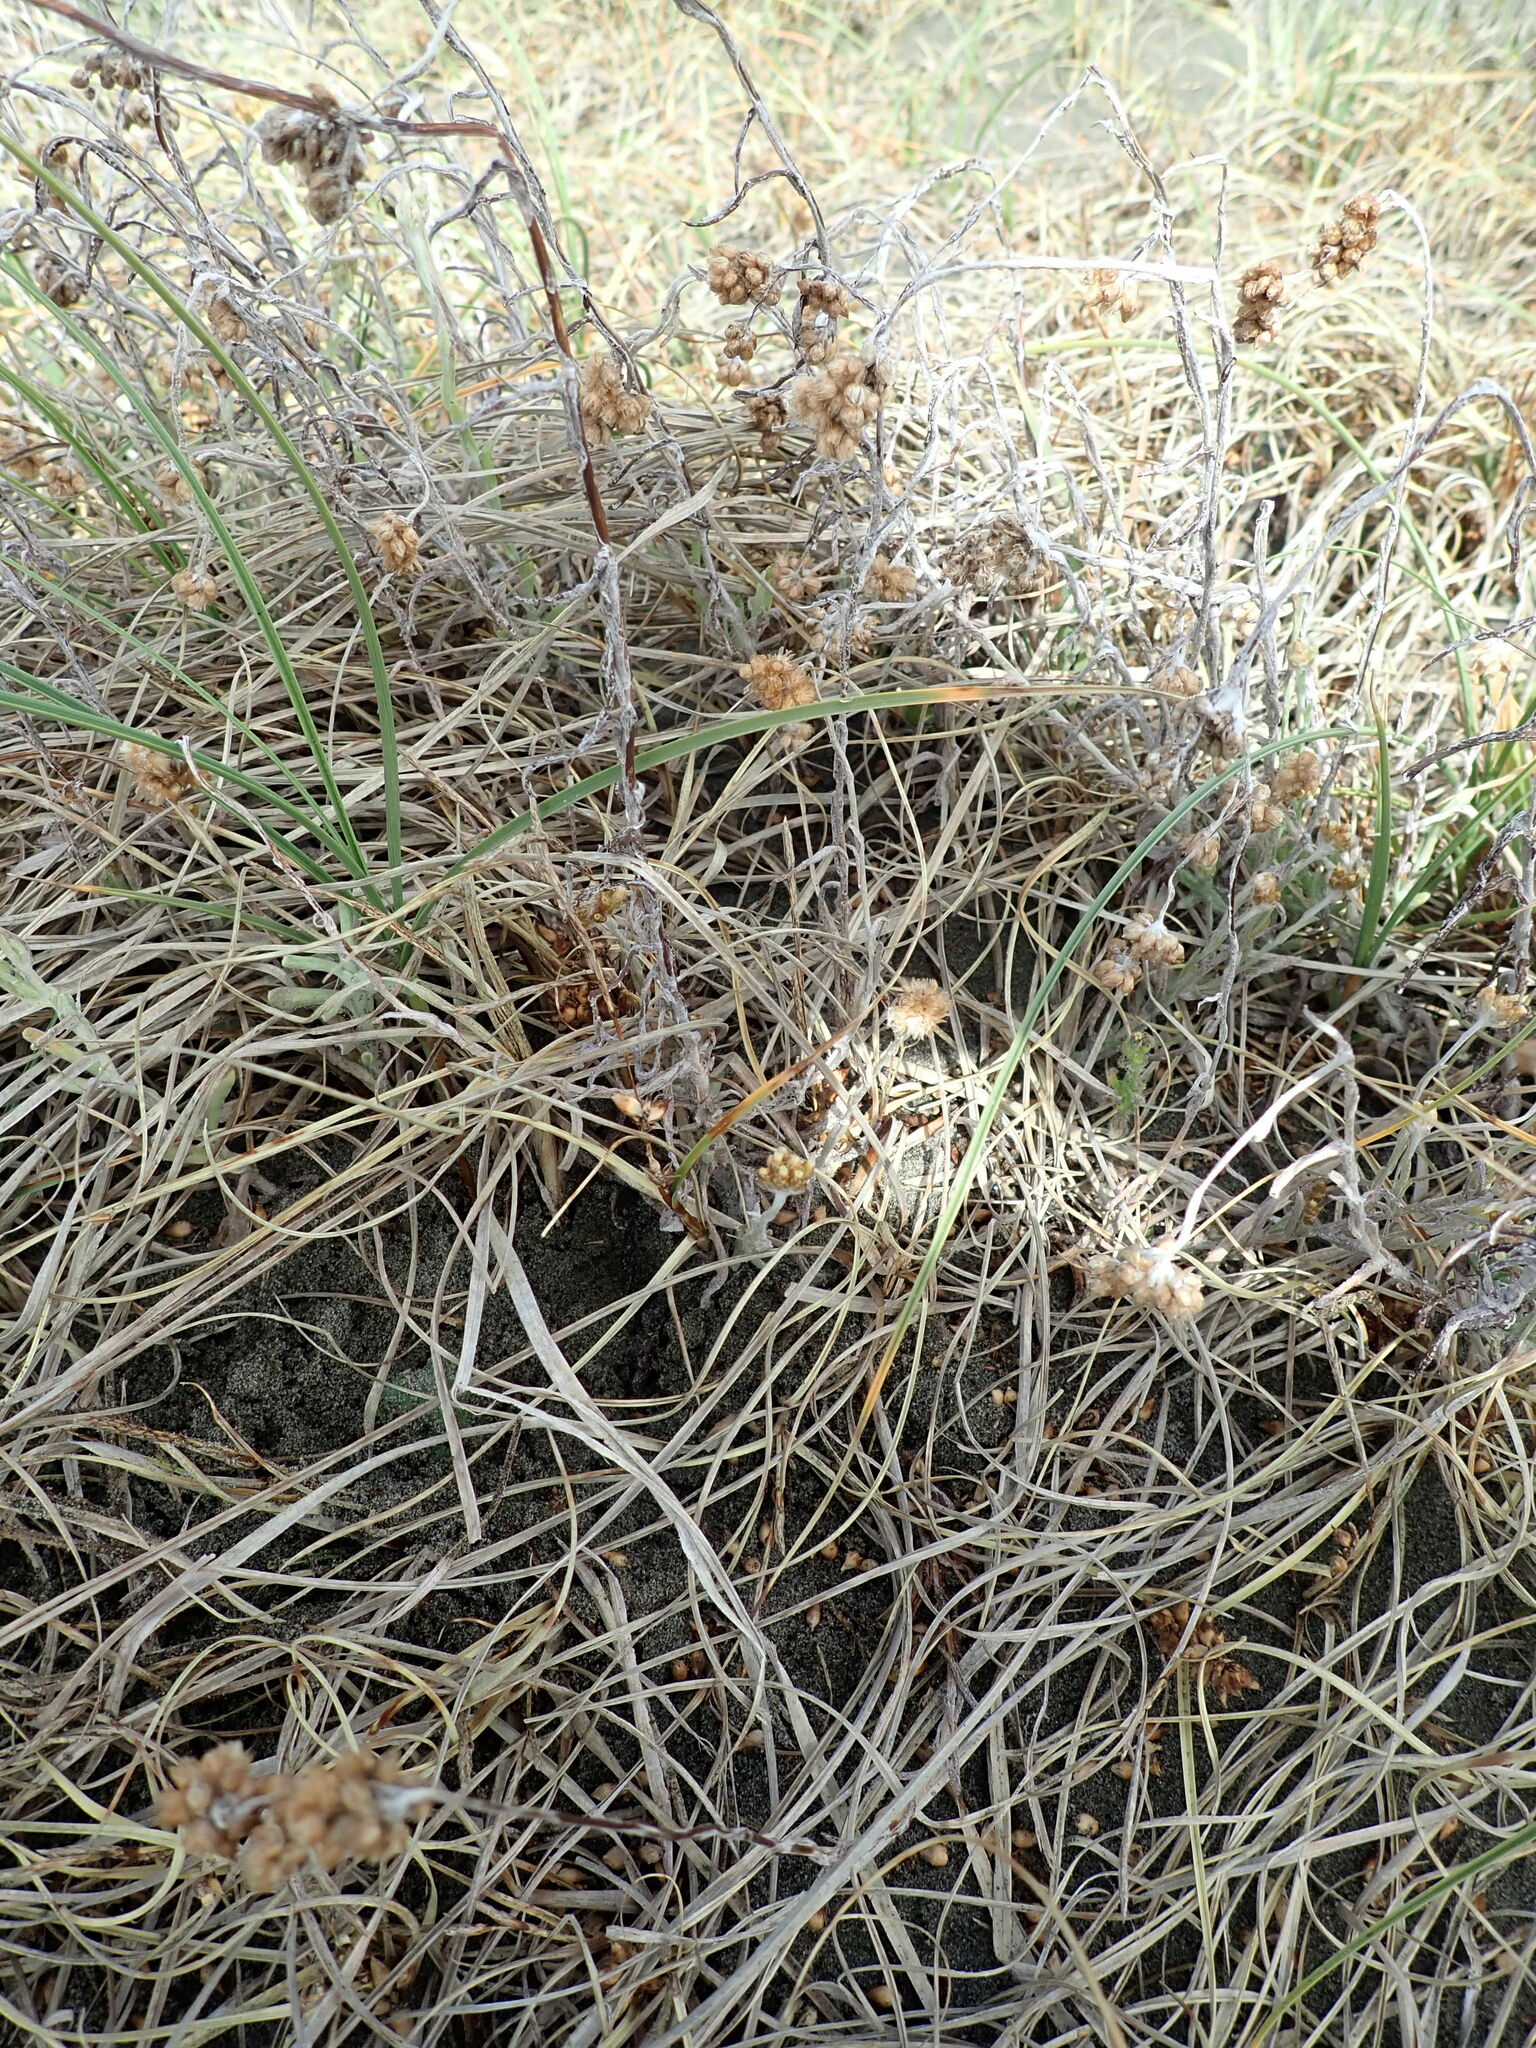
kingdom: Plantae
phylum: Tracheophyta
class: Magnoliopsida
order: Asterales
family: Asteraceae
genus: Pseudognaphalium
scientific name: Pseudognaphalium
